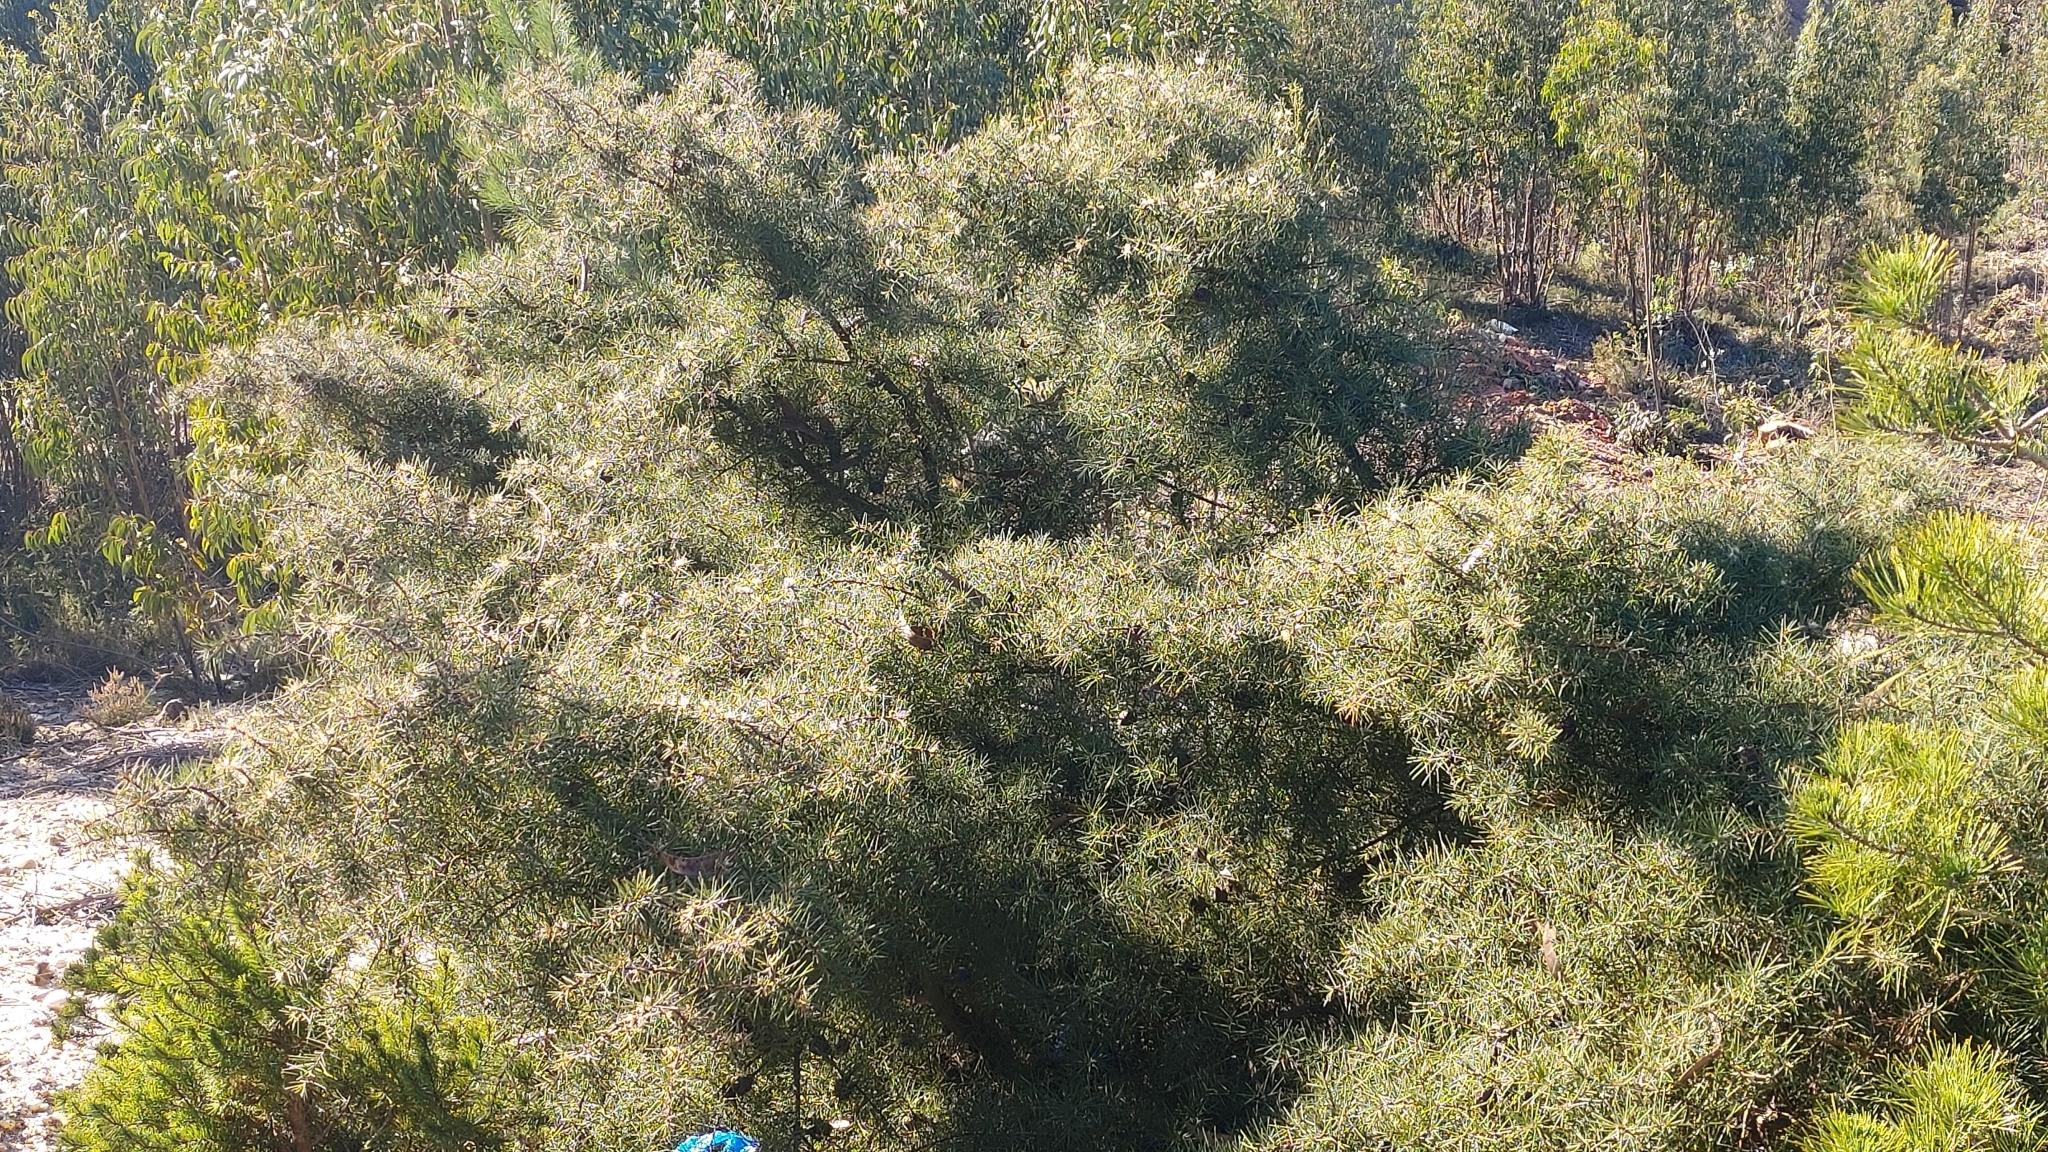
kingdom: Plantae
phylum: Tracheophyta
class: Magnoliopsida
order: Proteales
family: Proteaceae
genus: Hakea
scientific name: Hakea decurrens
